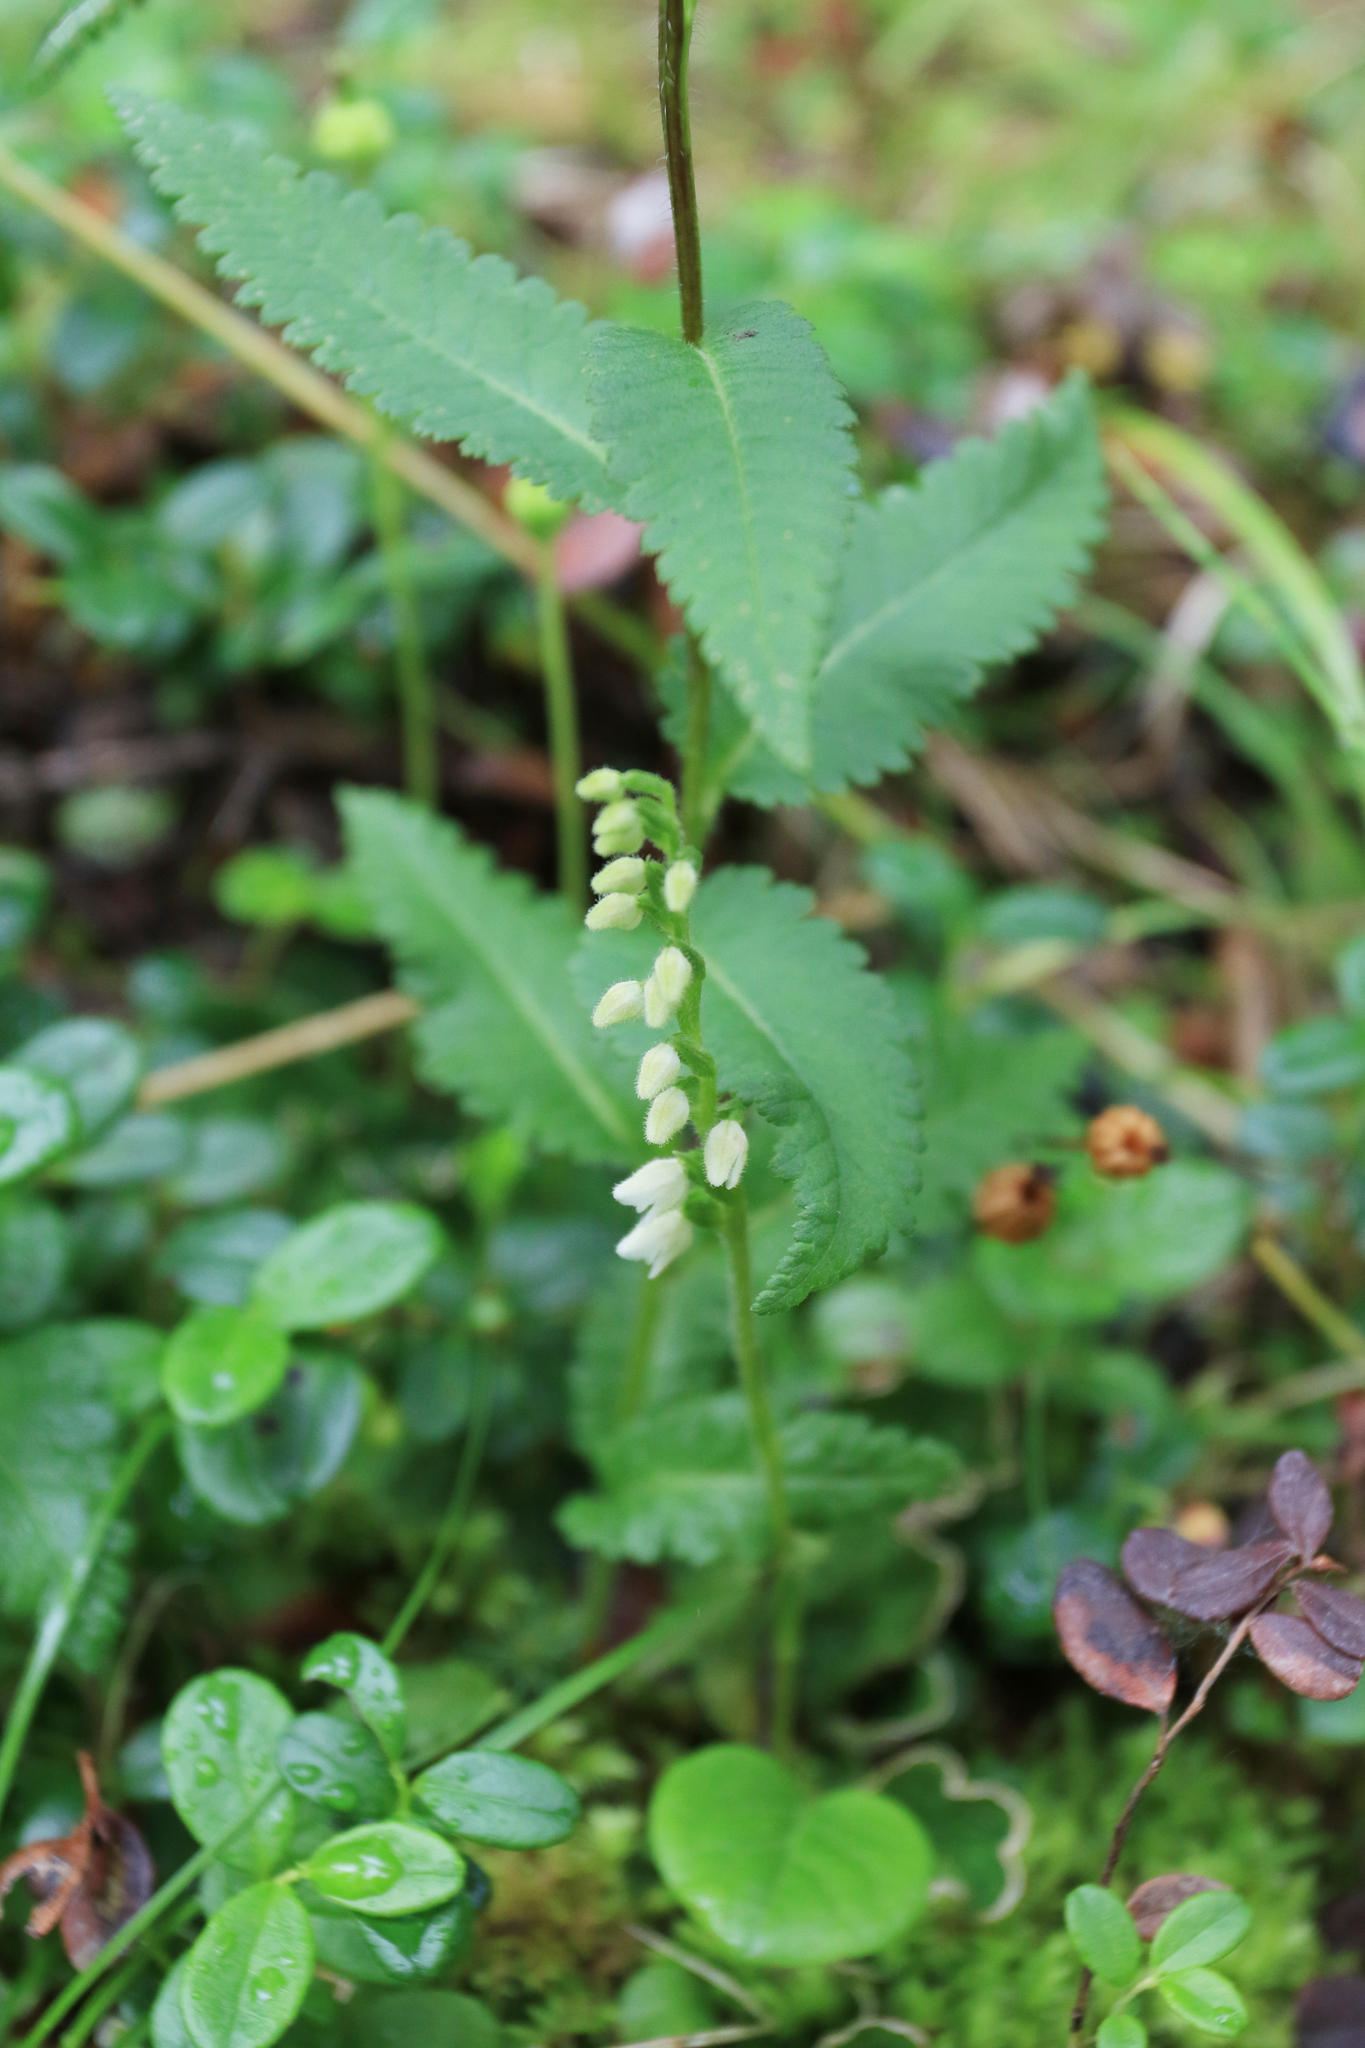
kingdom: Plantae
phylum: Tracheophyta
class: Liliopsida
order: Asparagales
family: Orchidaceae
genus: Goodyera
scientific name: Goodyera repens
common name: Creeping lady's-tresses
